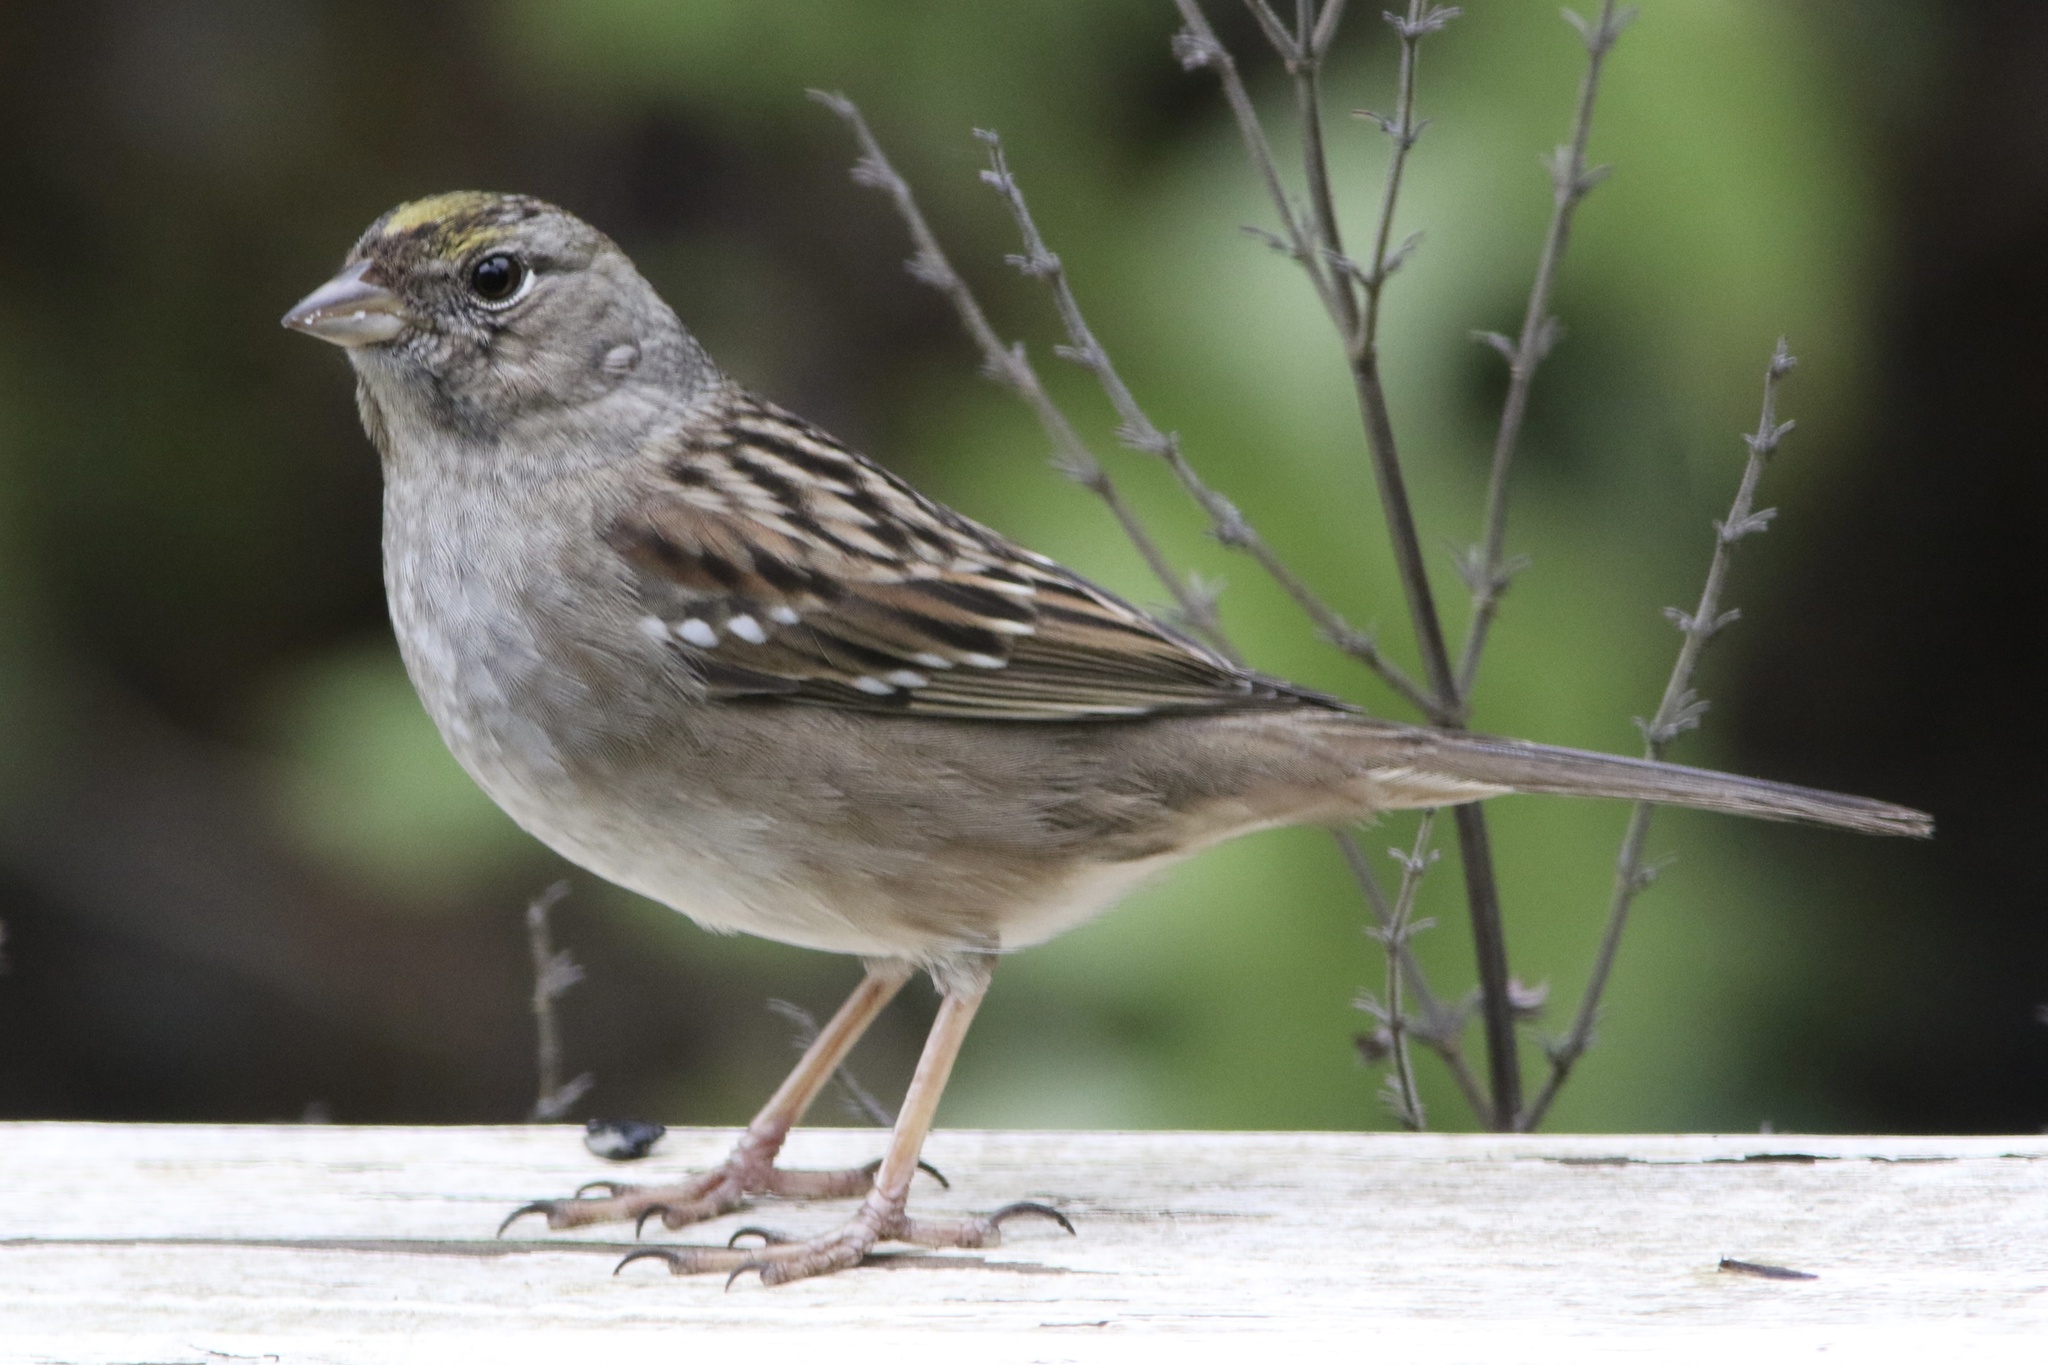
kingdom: Animalia
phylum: Chordata
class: Aves
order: Passeriformes
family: Passerellidae
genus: Zonotrichia
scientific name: Zonotrichia atricapilla
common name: Golden-crowned sparrow
